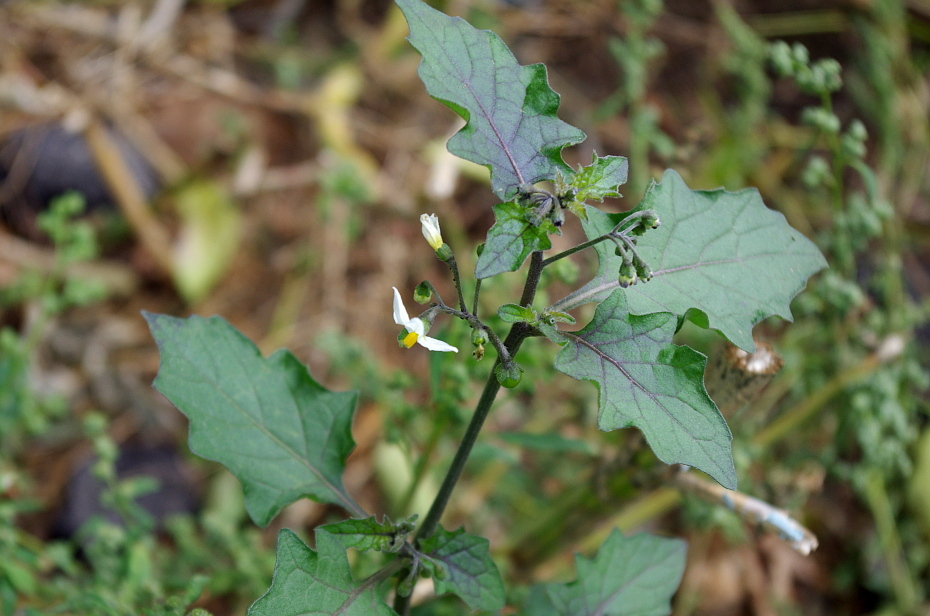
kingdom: Plantae
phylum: Tracheophyta
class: Magnoliopsida
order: Solanales
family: Solanaceae
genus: Solanum
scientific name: Solanum nigrum
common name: Black nightshade
